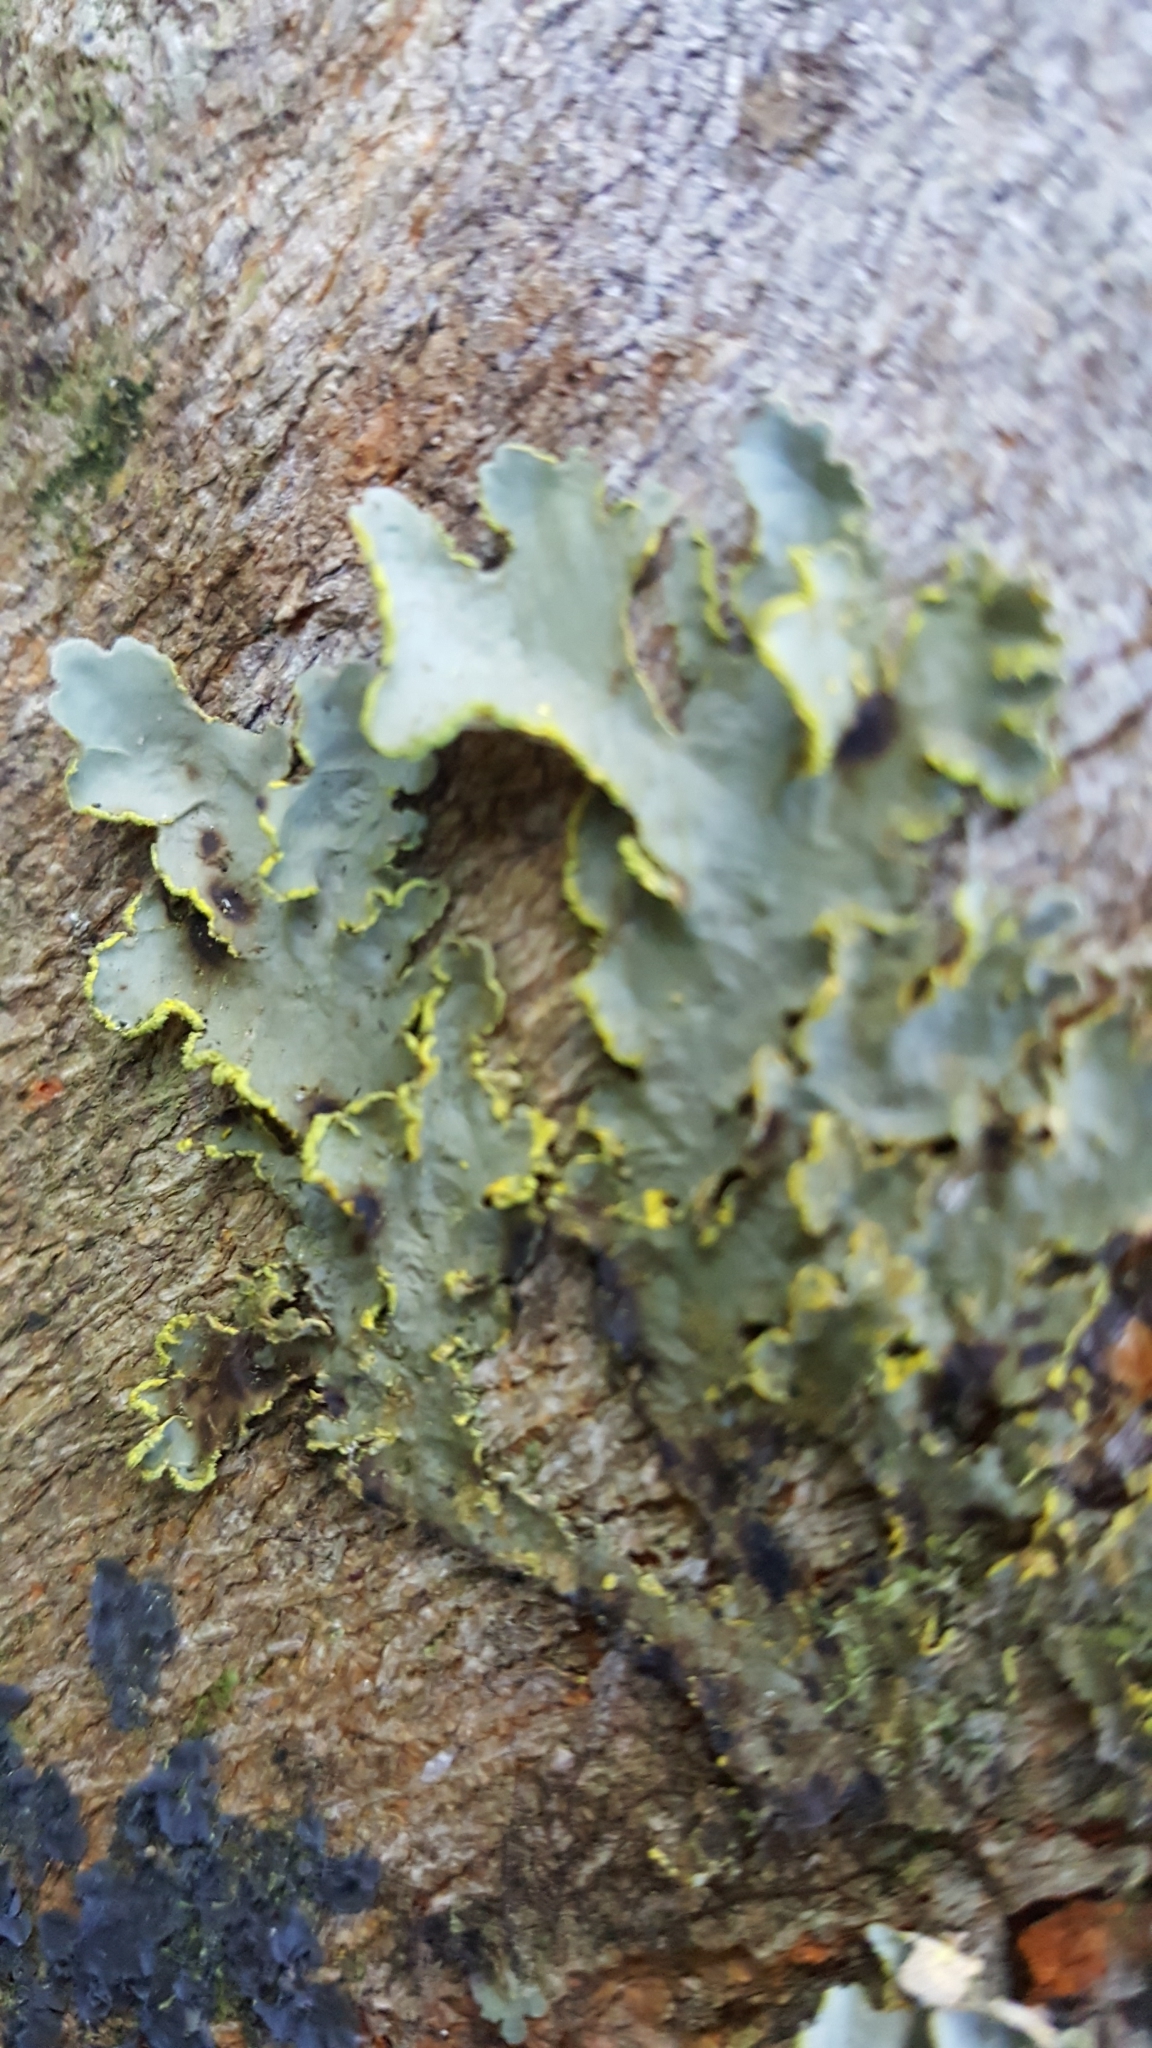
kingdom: Fungi
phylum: Ascomycota
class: Lecanoromycetes
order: Peltigerales
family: Lobariaceae
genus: Pseudocyphellaria
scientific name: Pseudocyphellaria aurata
